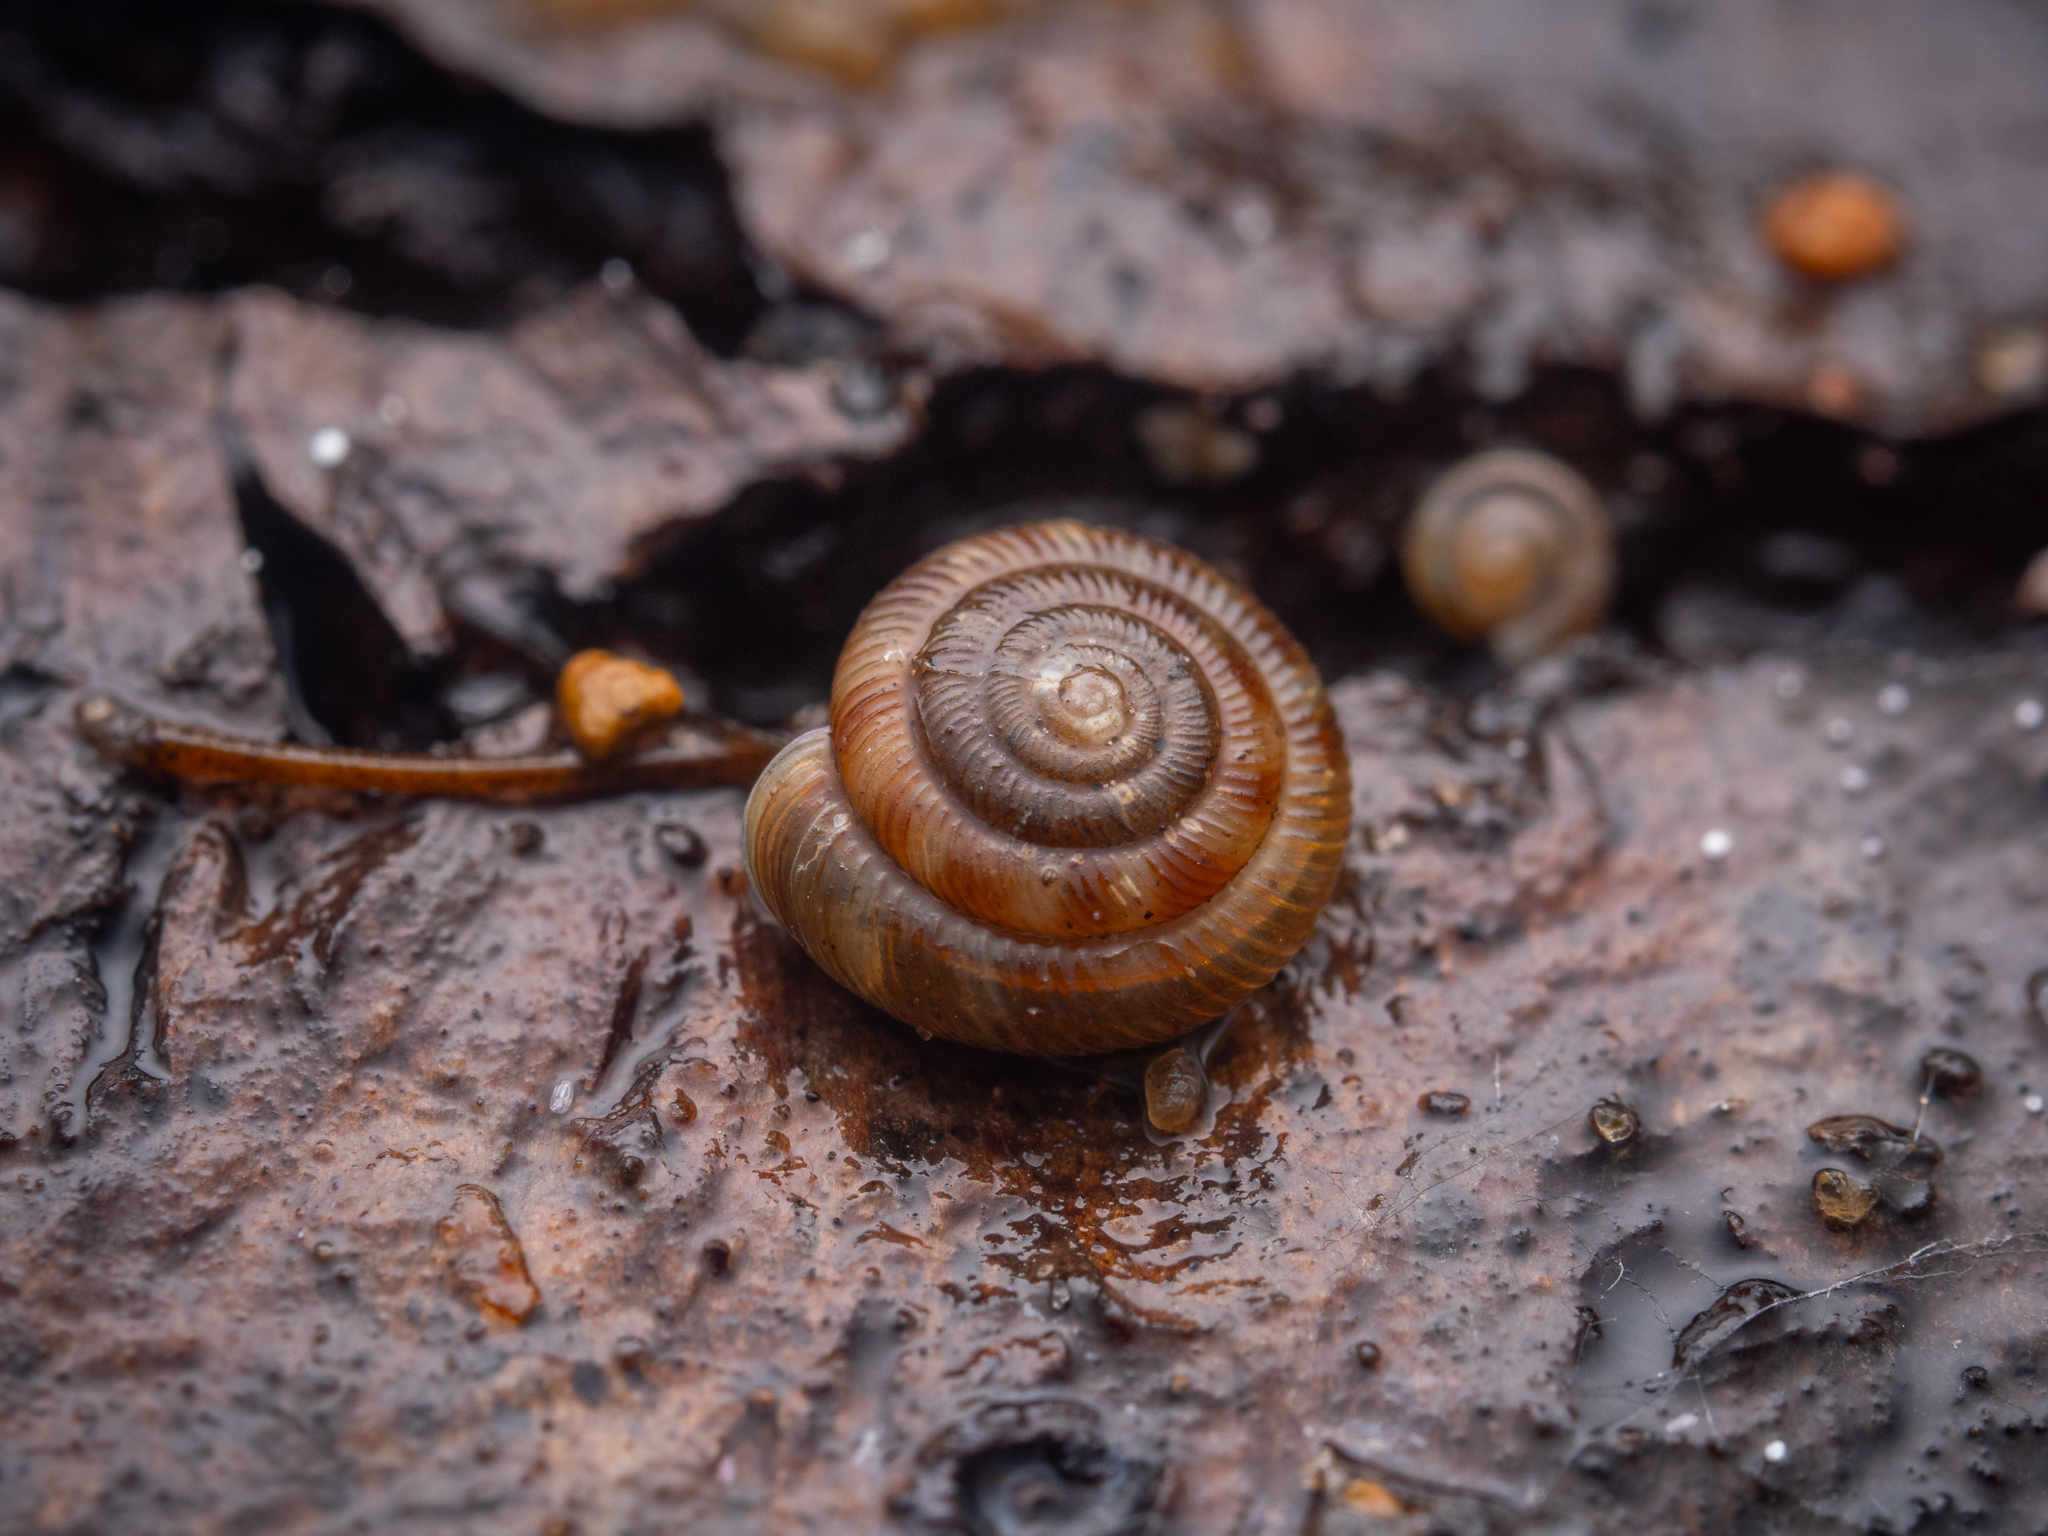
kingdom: Animalia
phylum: Mollusca
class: Gastropoda
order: Stylommatophora
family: Discidae
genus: Discus
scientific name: Discus rotundatus
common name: Rounded snail
